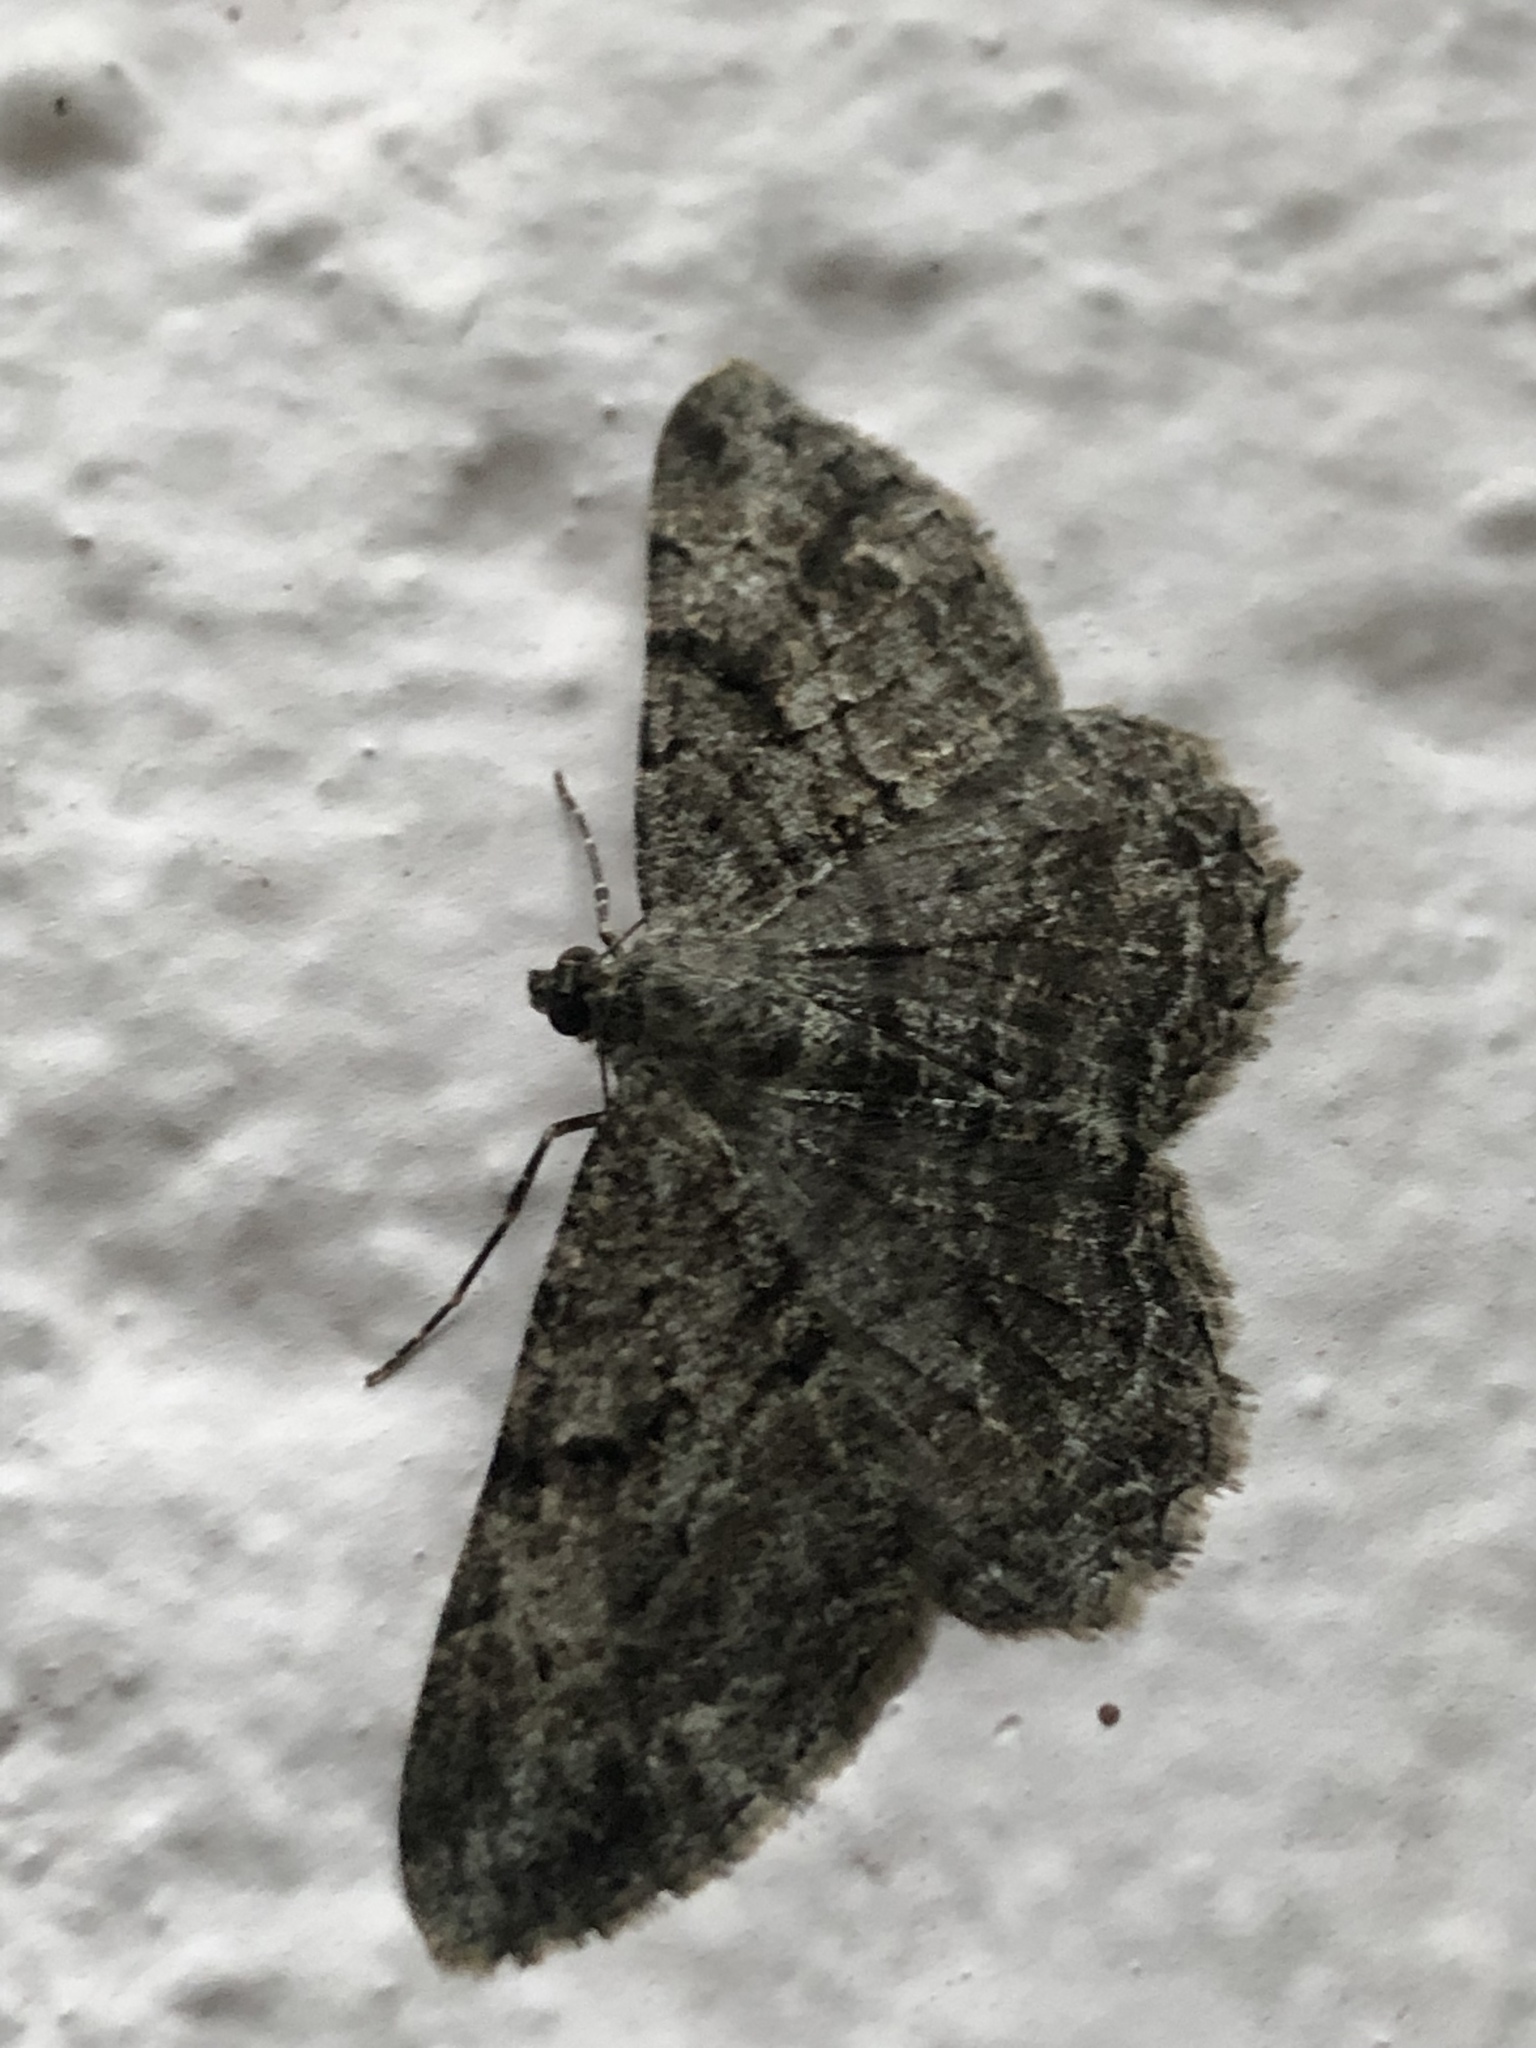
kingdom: Animalia
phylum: Arthropoda
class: Insecta
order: Lepidoptera
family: Geometridae
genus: Peribatodes
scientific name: Peribatodes rhomboidaria
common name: Willow beauty
